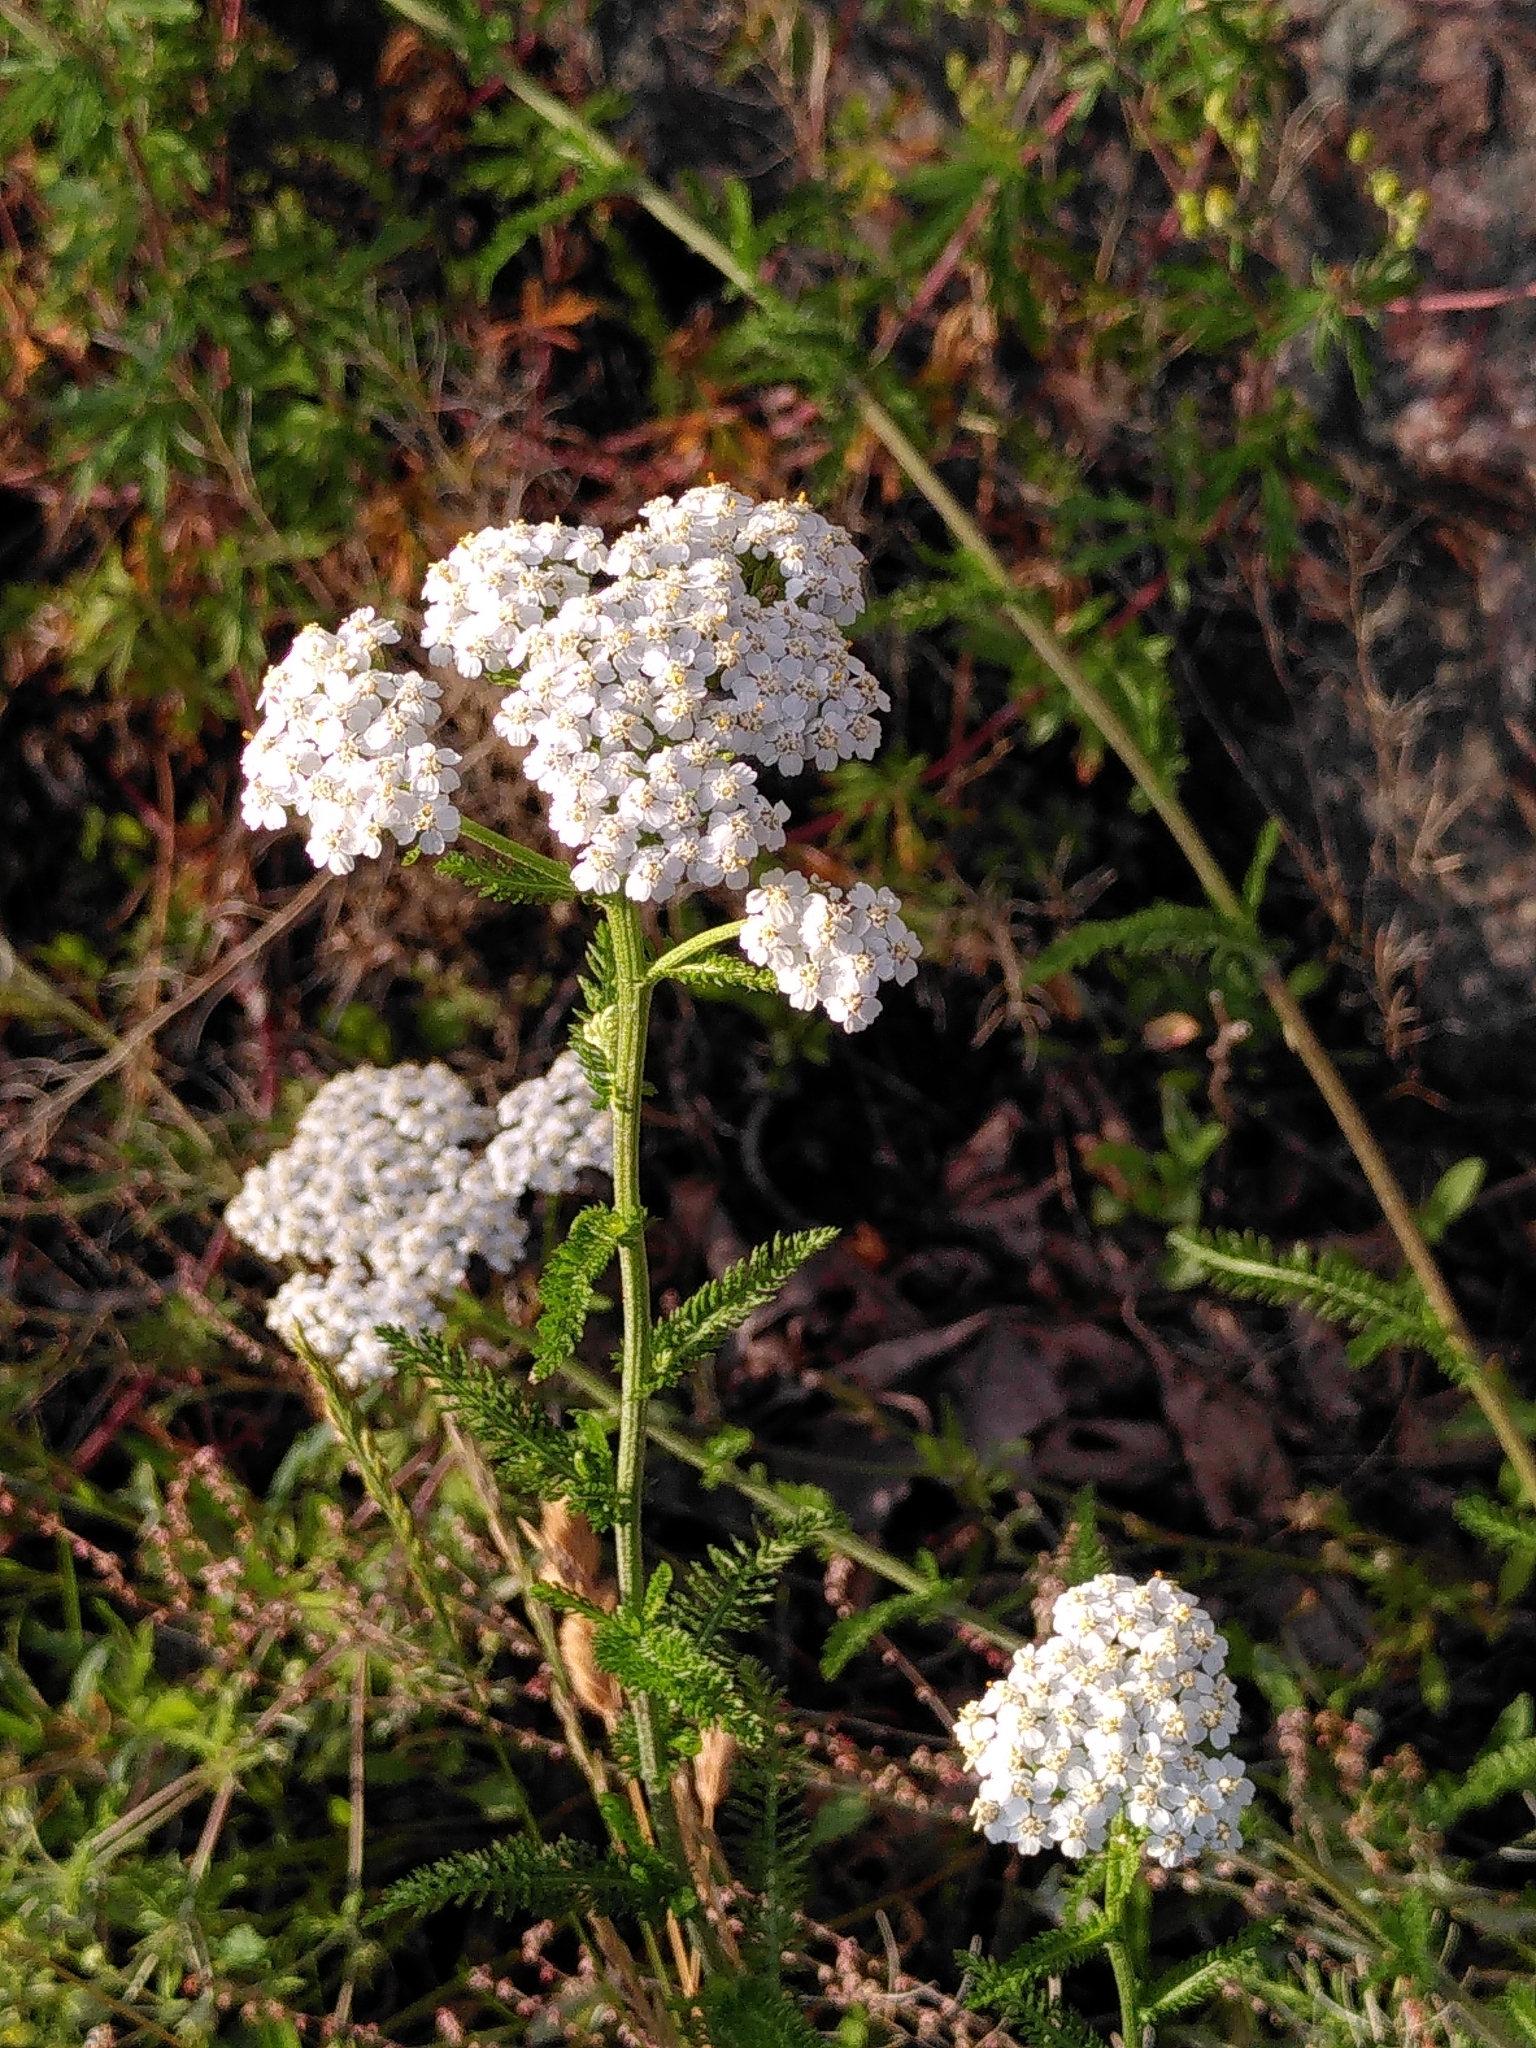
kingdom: Plantae
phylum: Tracheophyta
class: Magnoliopsida
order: Asterales
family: Asteraceae
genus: Achillea
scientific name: Achillea millefolium
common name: Yarrow
